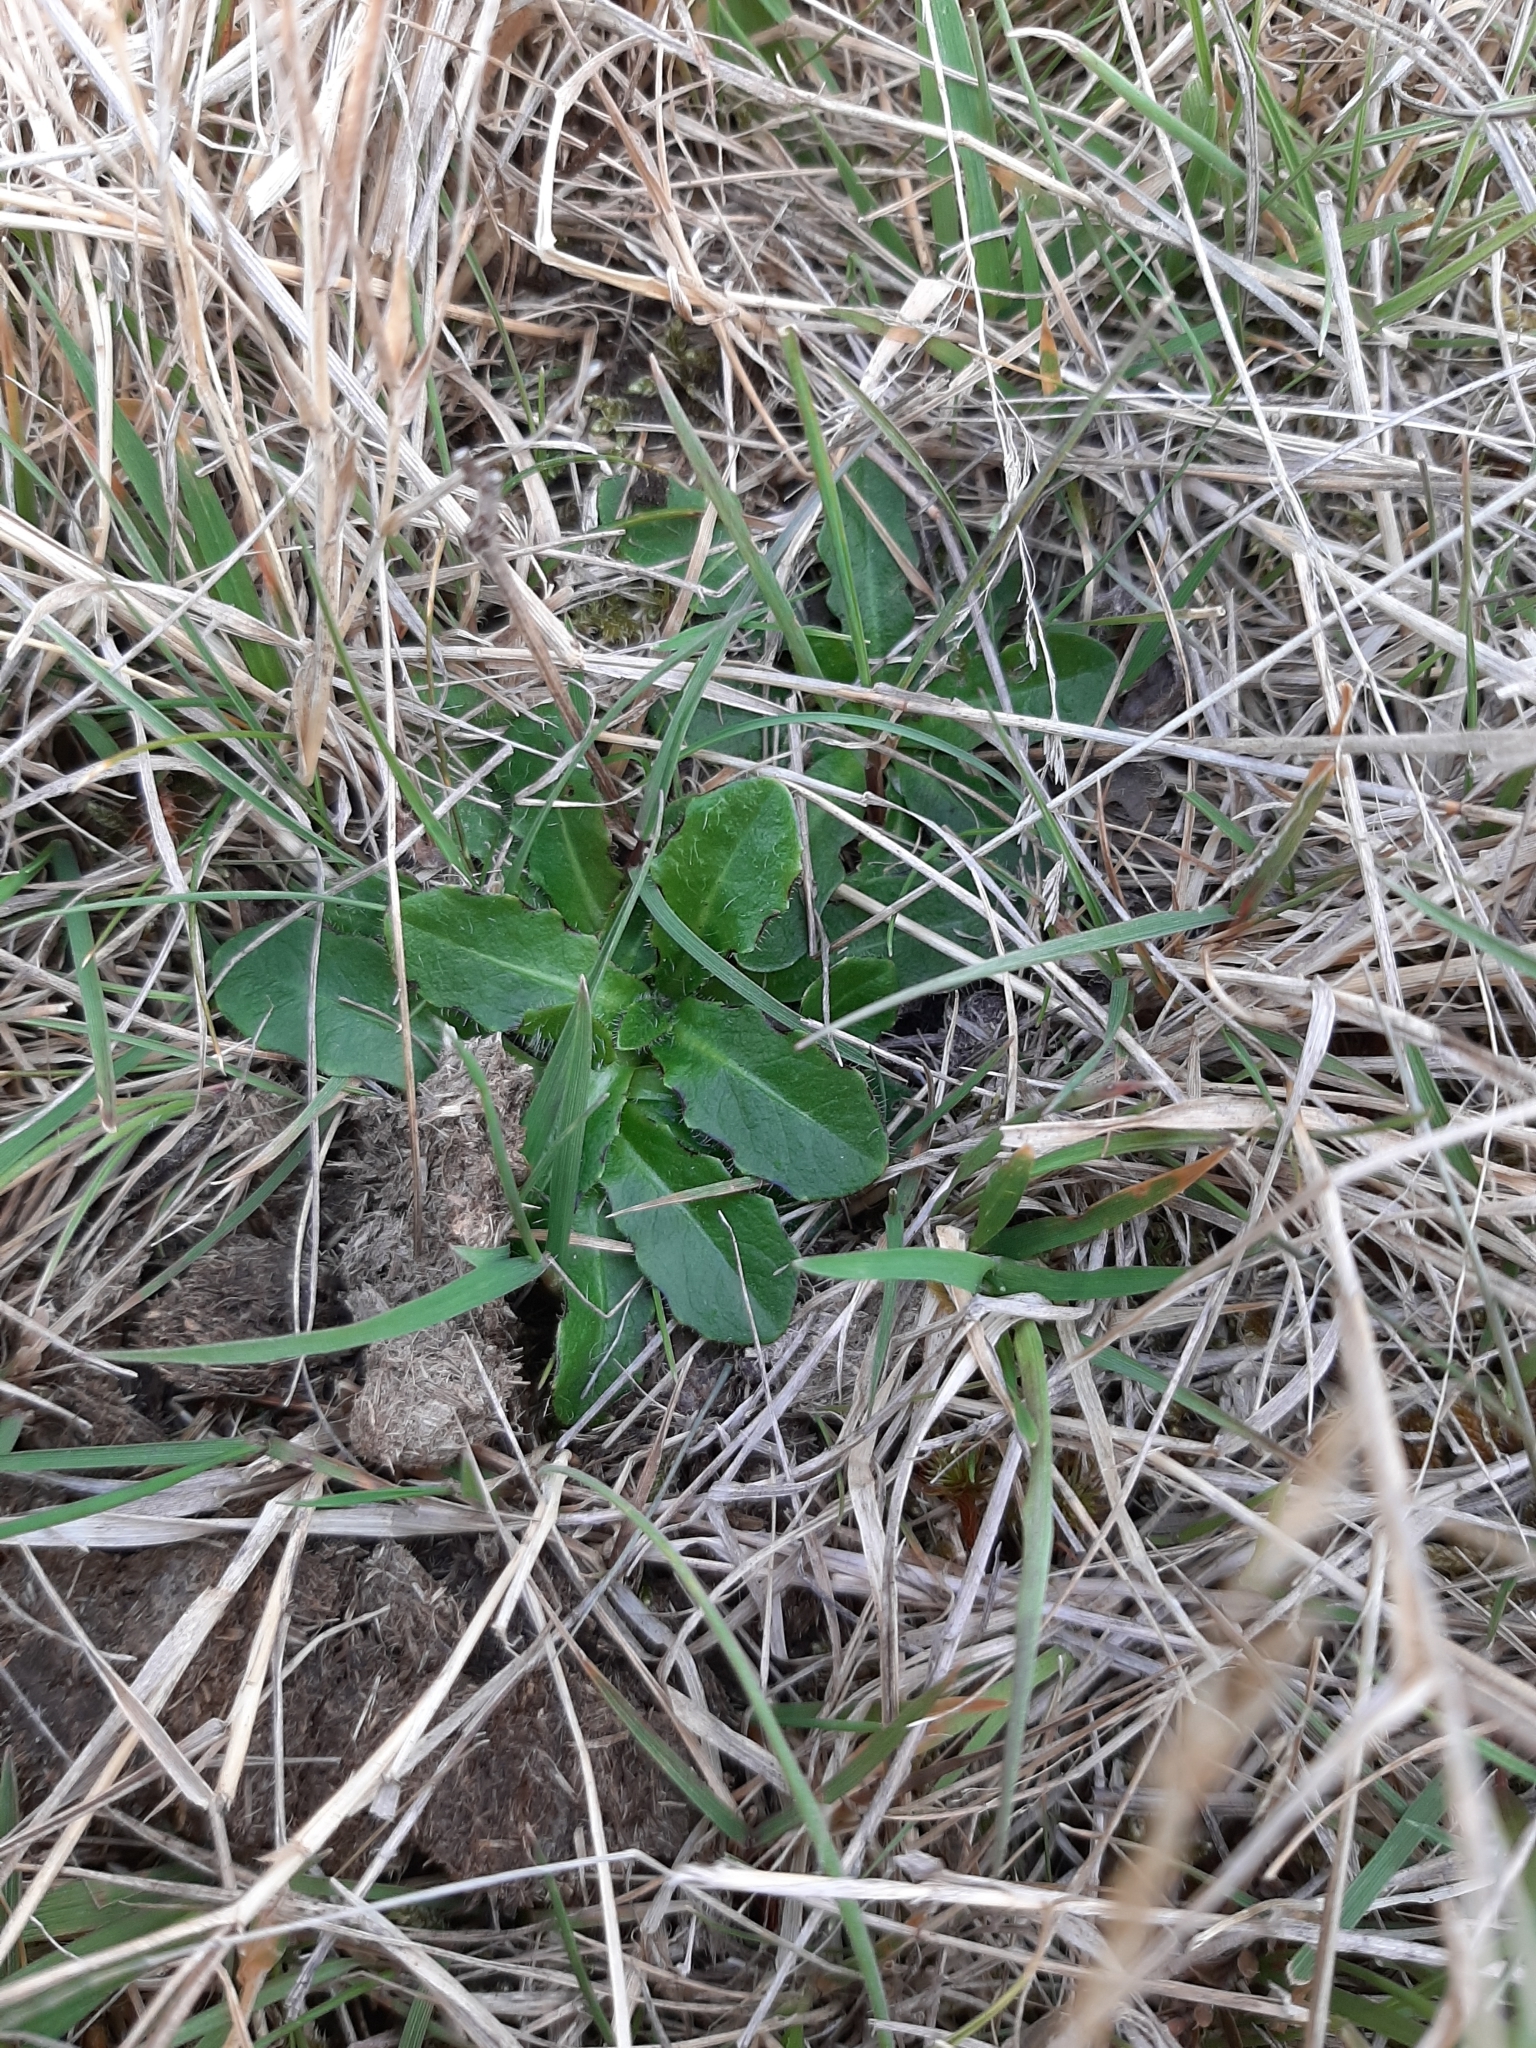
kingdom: Plantae
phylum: Tracheophyta
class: Magnoliopsida
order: Asterales
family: Asteraceae
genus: Hypochaeris
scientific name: Hypochaeris radicata
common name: Flatweed
